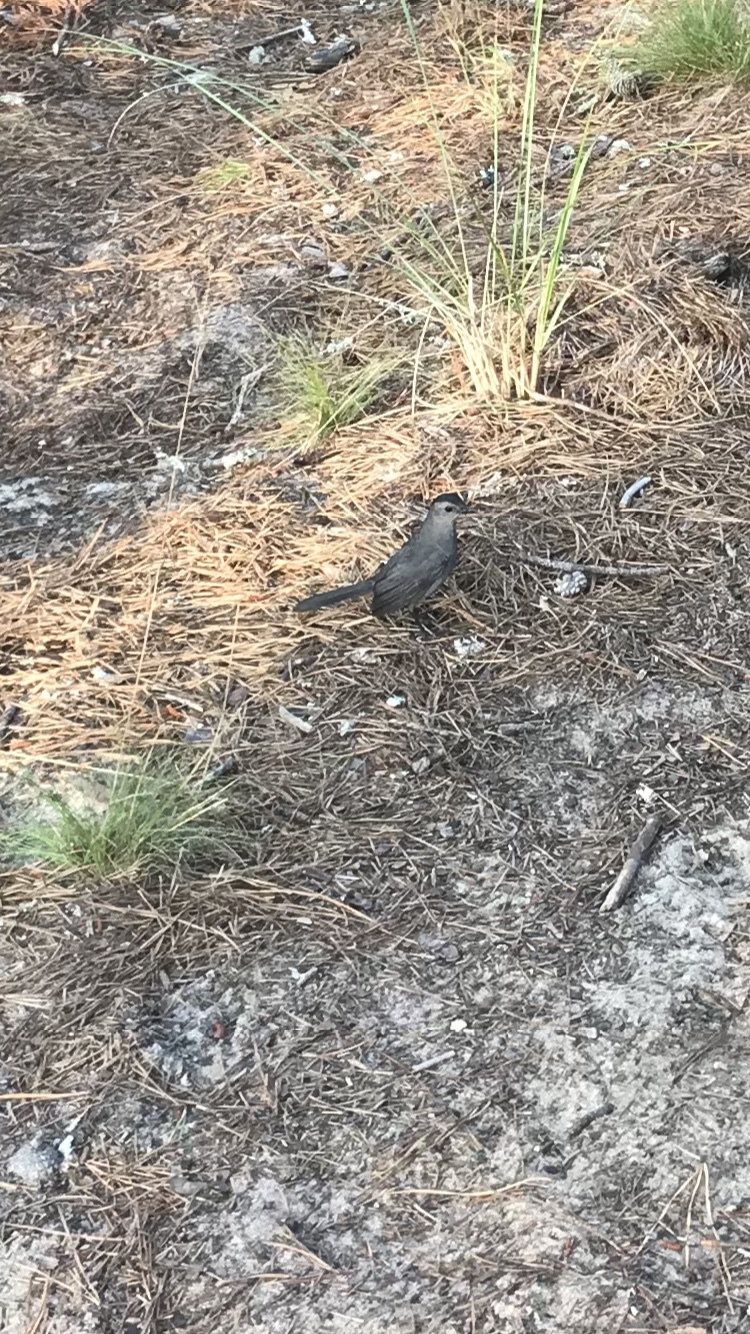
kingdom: Animalia
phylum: Chordata
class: Aves
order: Passeriformes
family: Mimidae
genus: Dumetella
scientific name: Dumetella carolinensis
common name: Gray catbird
